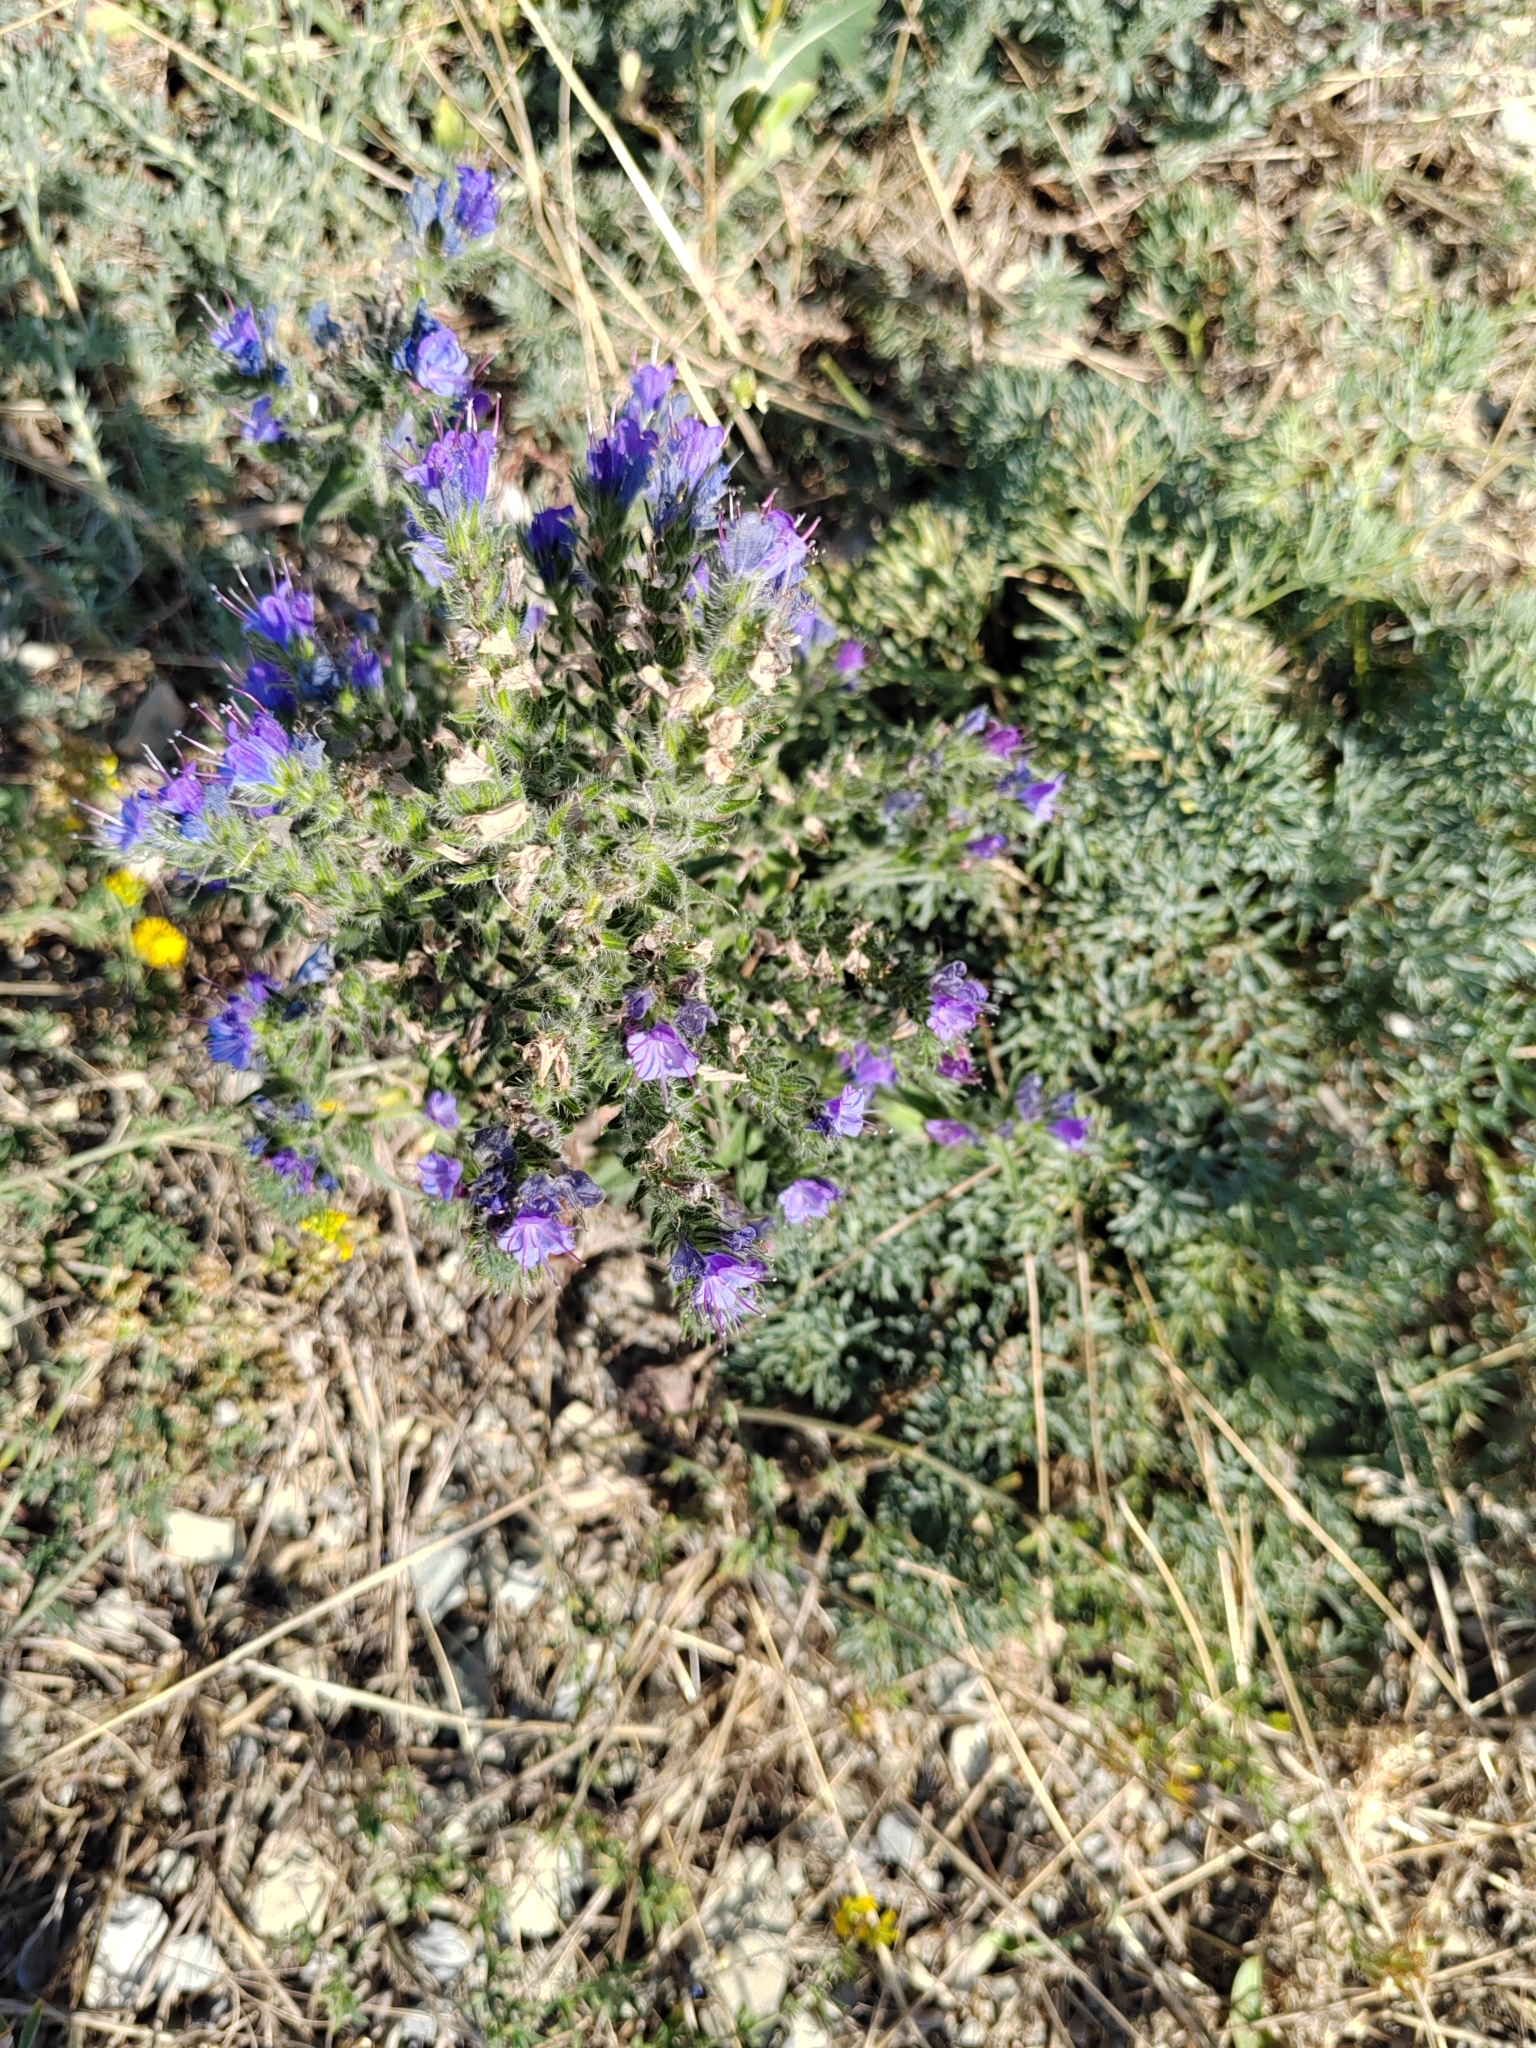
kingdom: Plantae
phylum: Tracheophyta
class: Magnoliopsida
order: Boraginales
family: Boraginaceae
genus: Echium
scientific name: Echium vulgare
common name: Common viper's bugloss
